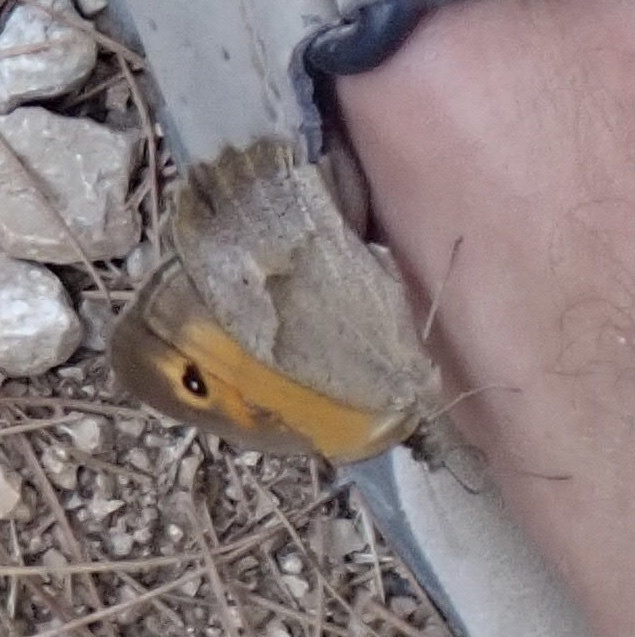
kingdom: Animalia
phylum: Arthropoda
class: Insecta
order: Lepidoptera
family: Nymphalidae
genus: Maniola
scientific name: Maniola jurtina
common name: Meadow brown
